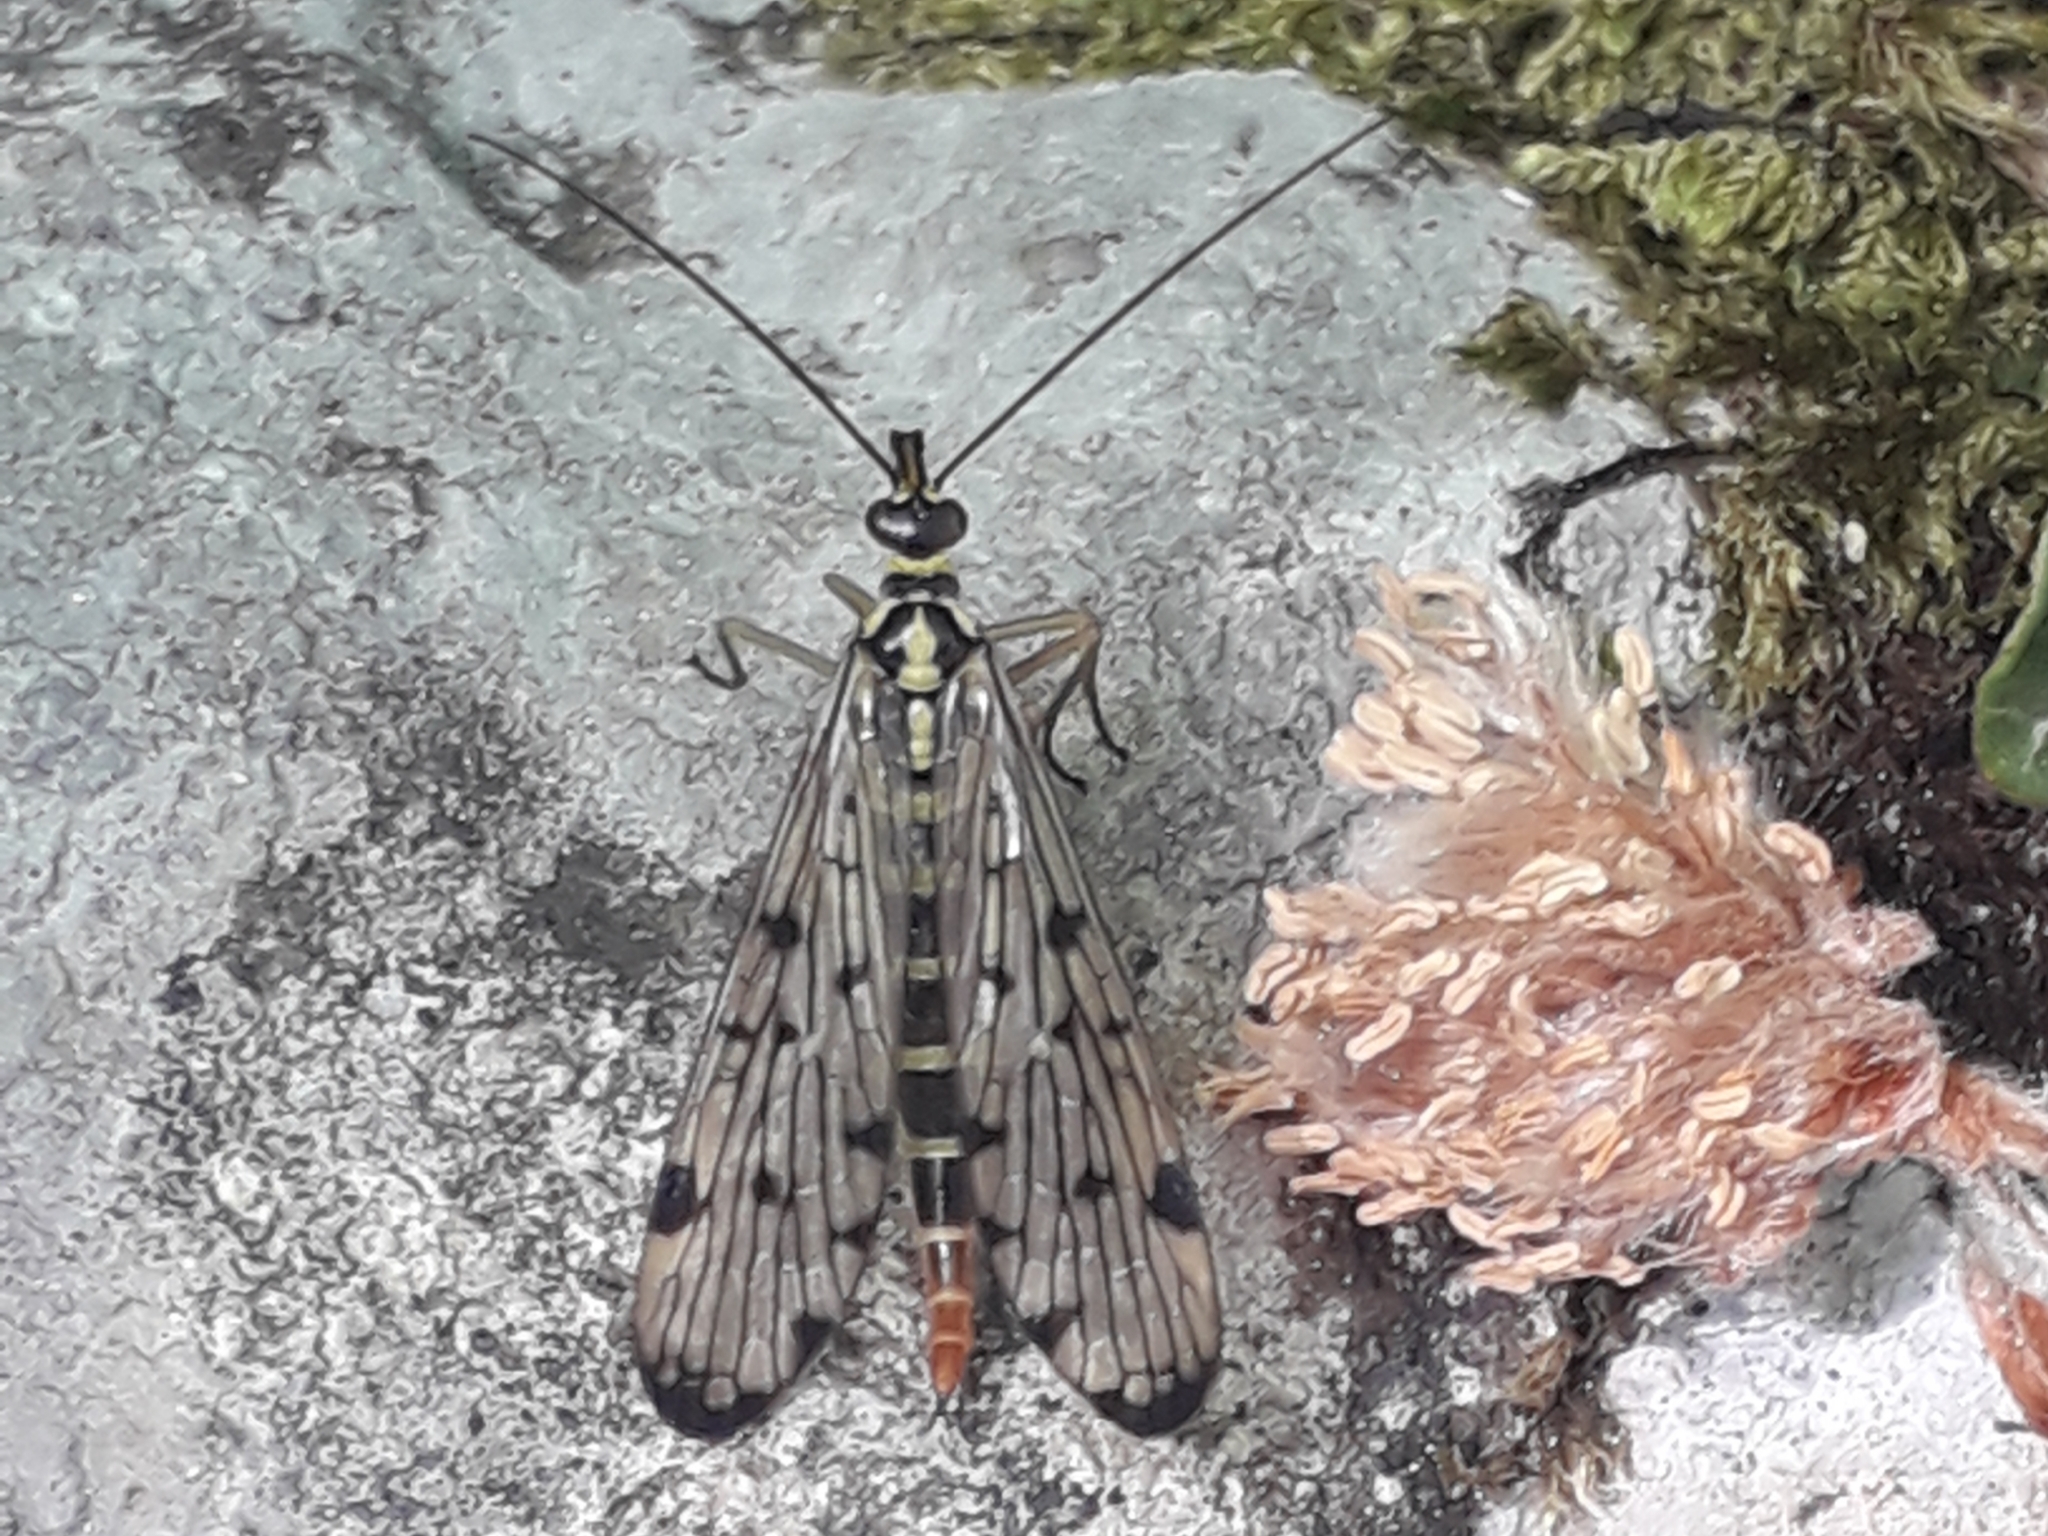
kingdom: Animalia
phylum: Arthropoda
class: Insecta
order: Mecoptera
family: Panorpidae
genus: Panorpa
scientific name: Panorpa germanica
